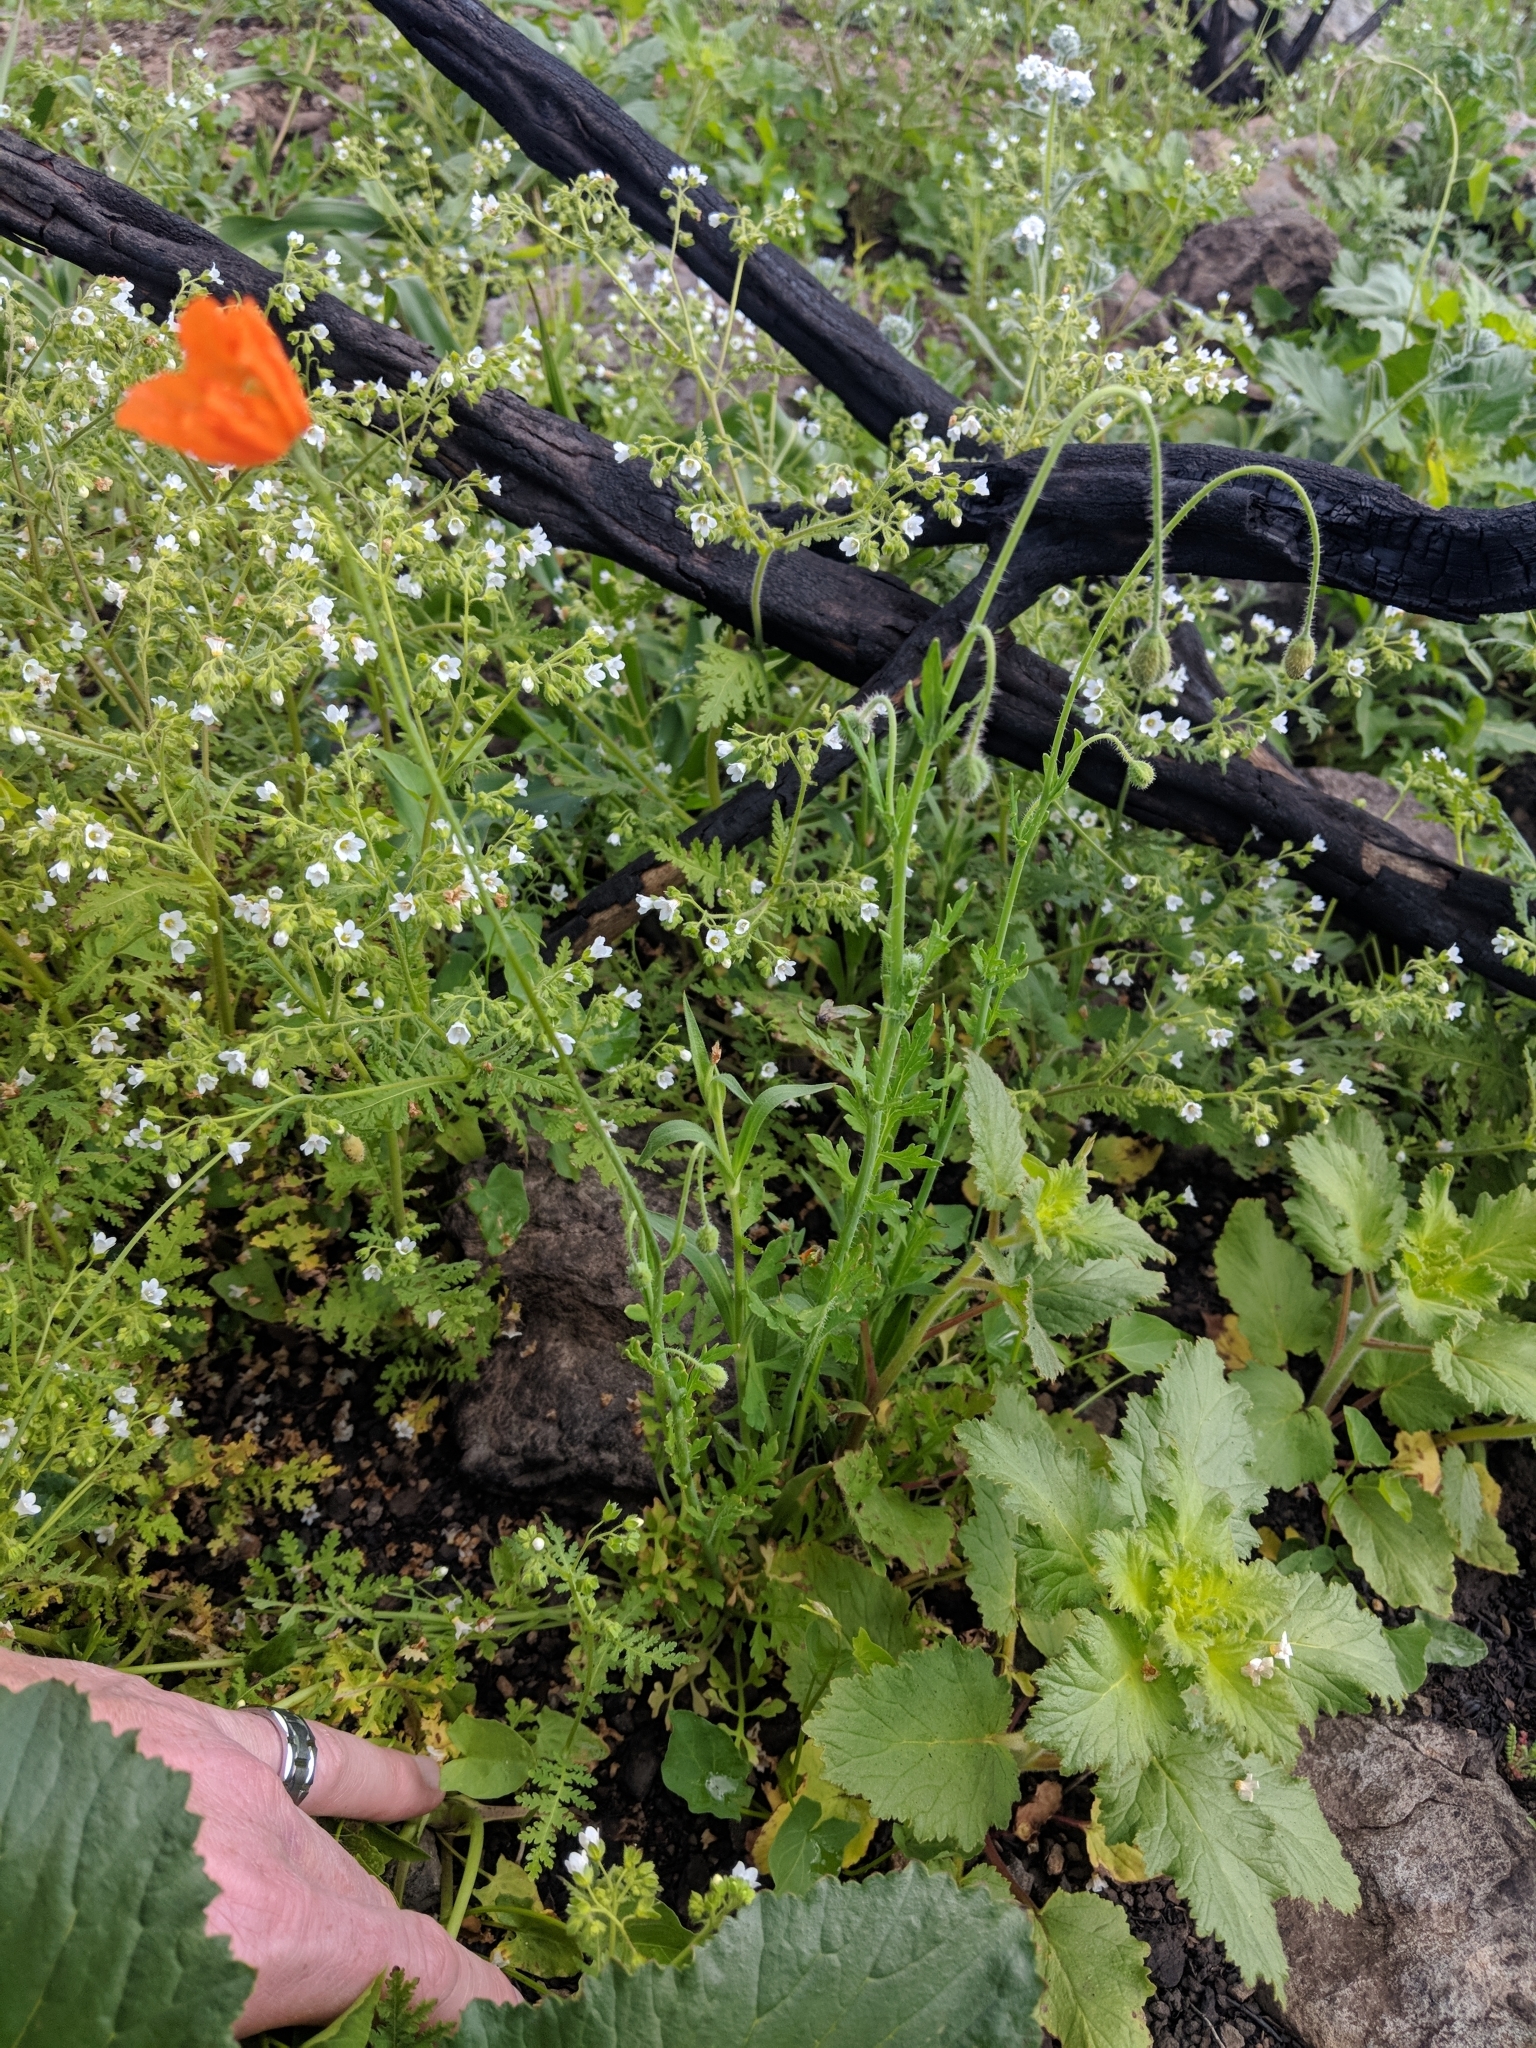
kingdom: Plantae
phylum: Tracheophyta
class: Magnoliopsida
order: Ranunculales
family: Papaveraceae
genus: Papaver
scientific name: Papaver californicum
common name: Fire poppy
